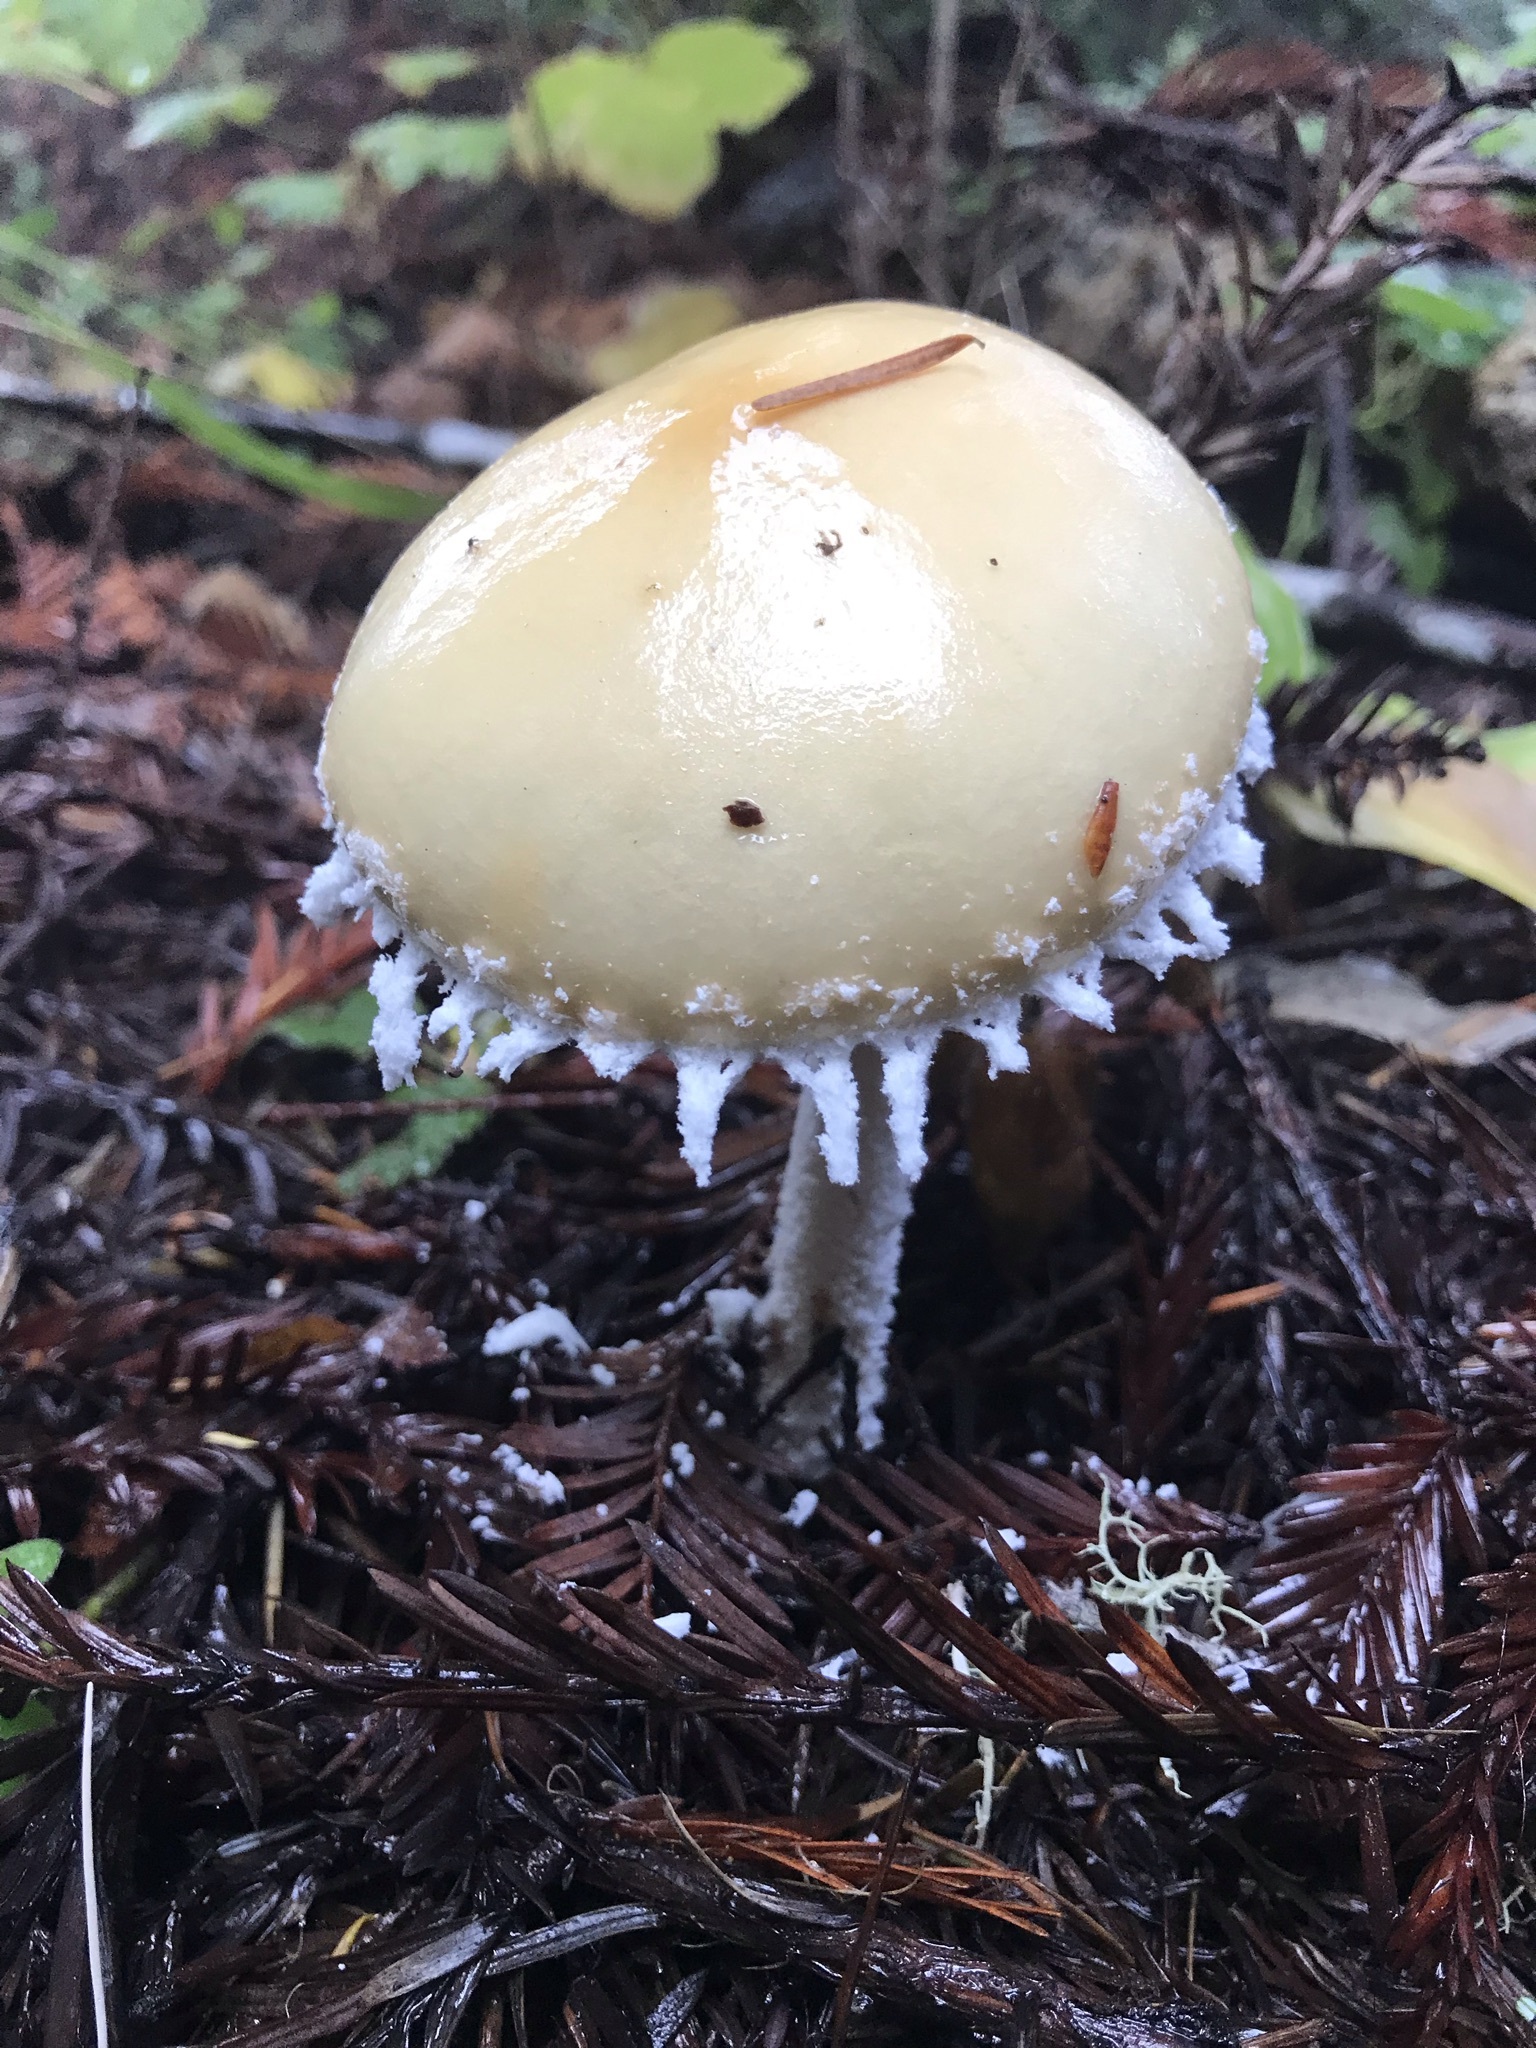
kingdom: Fungi
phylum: Basidiomycota
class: Agaricomycetes
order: Agaricales
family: Strophariaceae
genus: Stropharia
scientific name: Stropharia ambigua
